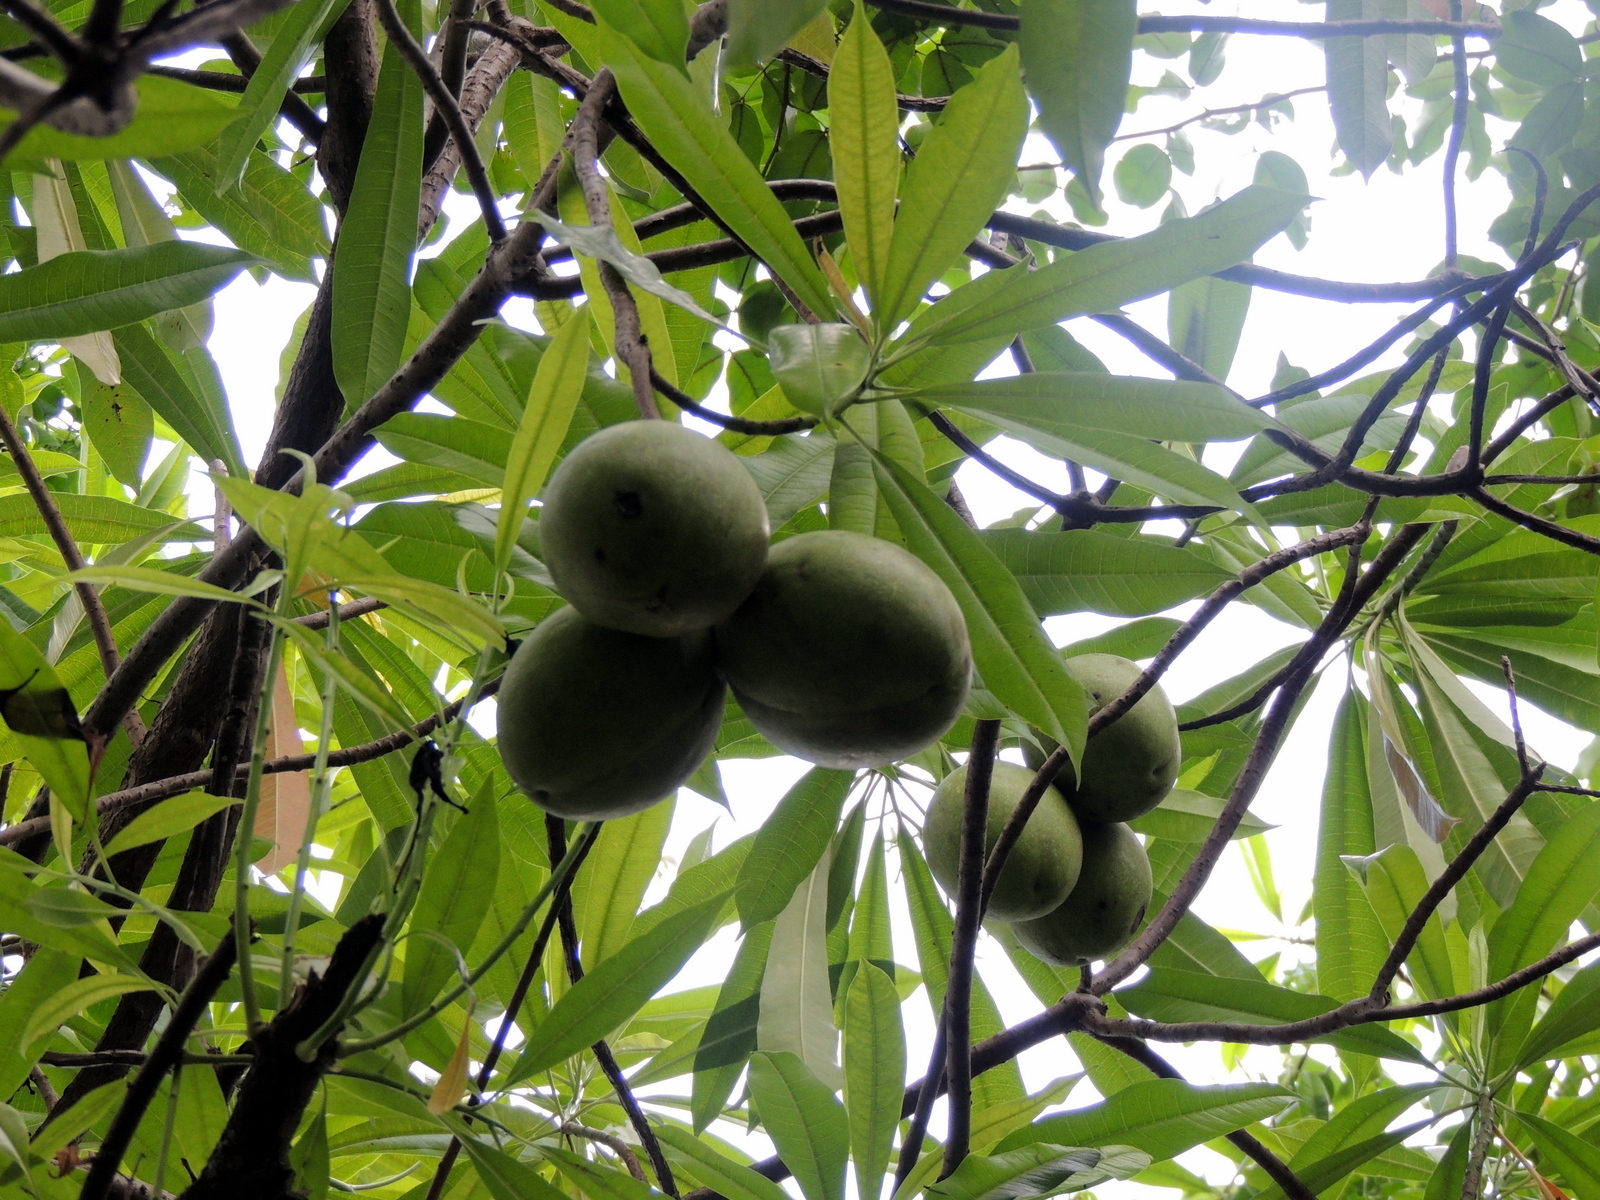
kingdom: Plantae
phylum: Tracheophyta
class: Magnoliopsida
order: Gentianales
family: Apocynaceae
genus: Cerbera
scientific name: Cerbera odollam
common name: Pong-pong
